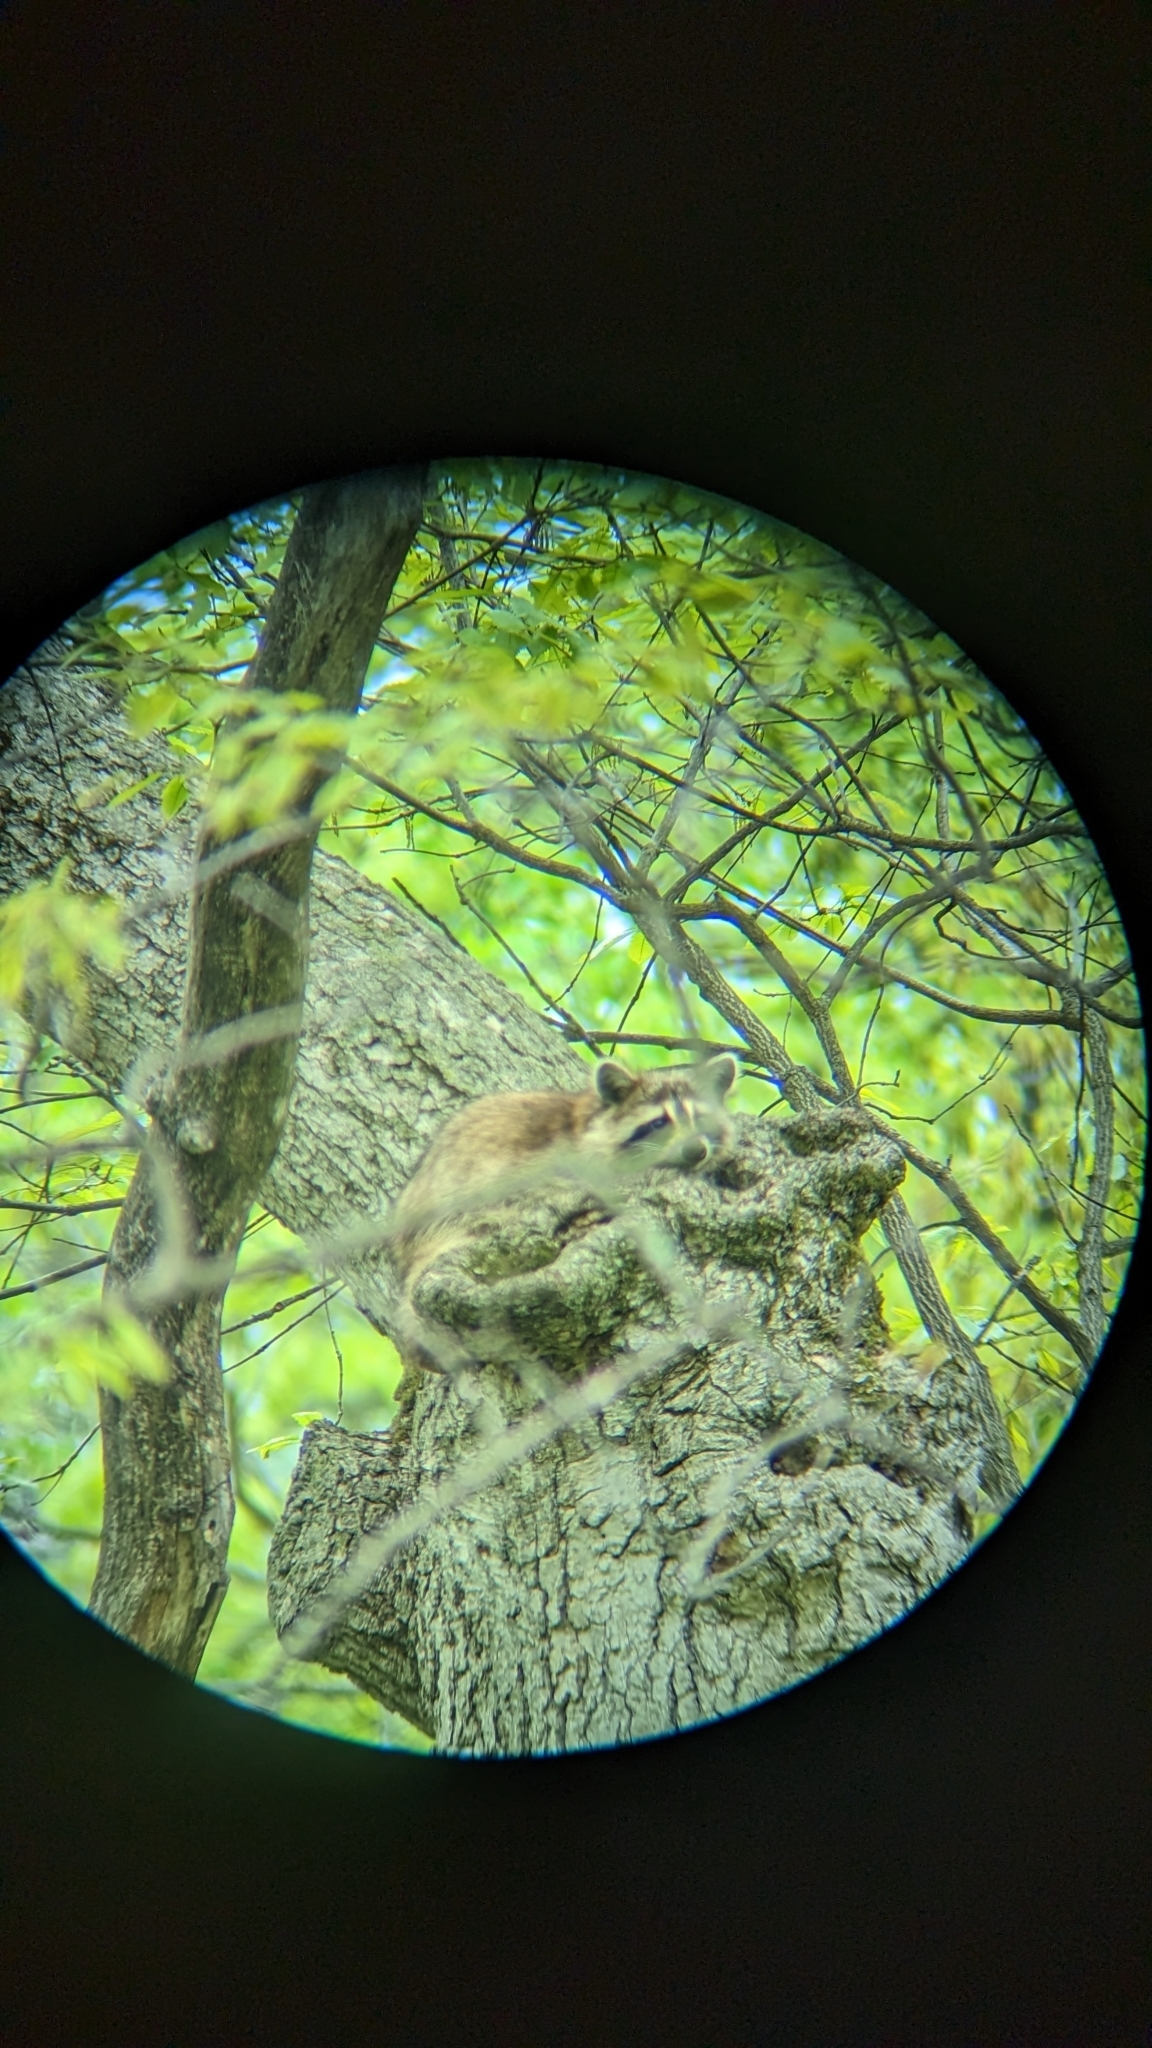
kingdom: Animalia
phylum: Chordata
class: Mammalia
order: Carnivora
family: Procyonidae
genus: Procyon
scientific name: Procyon lotor
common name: Raccoon
